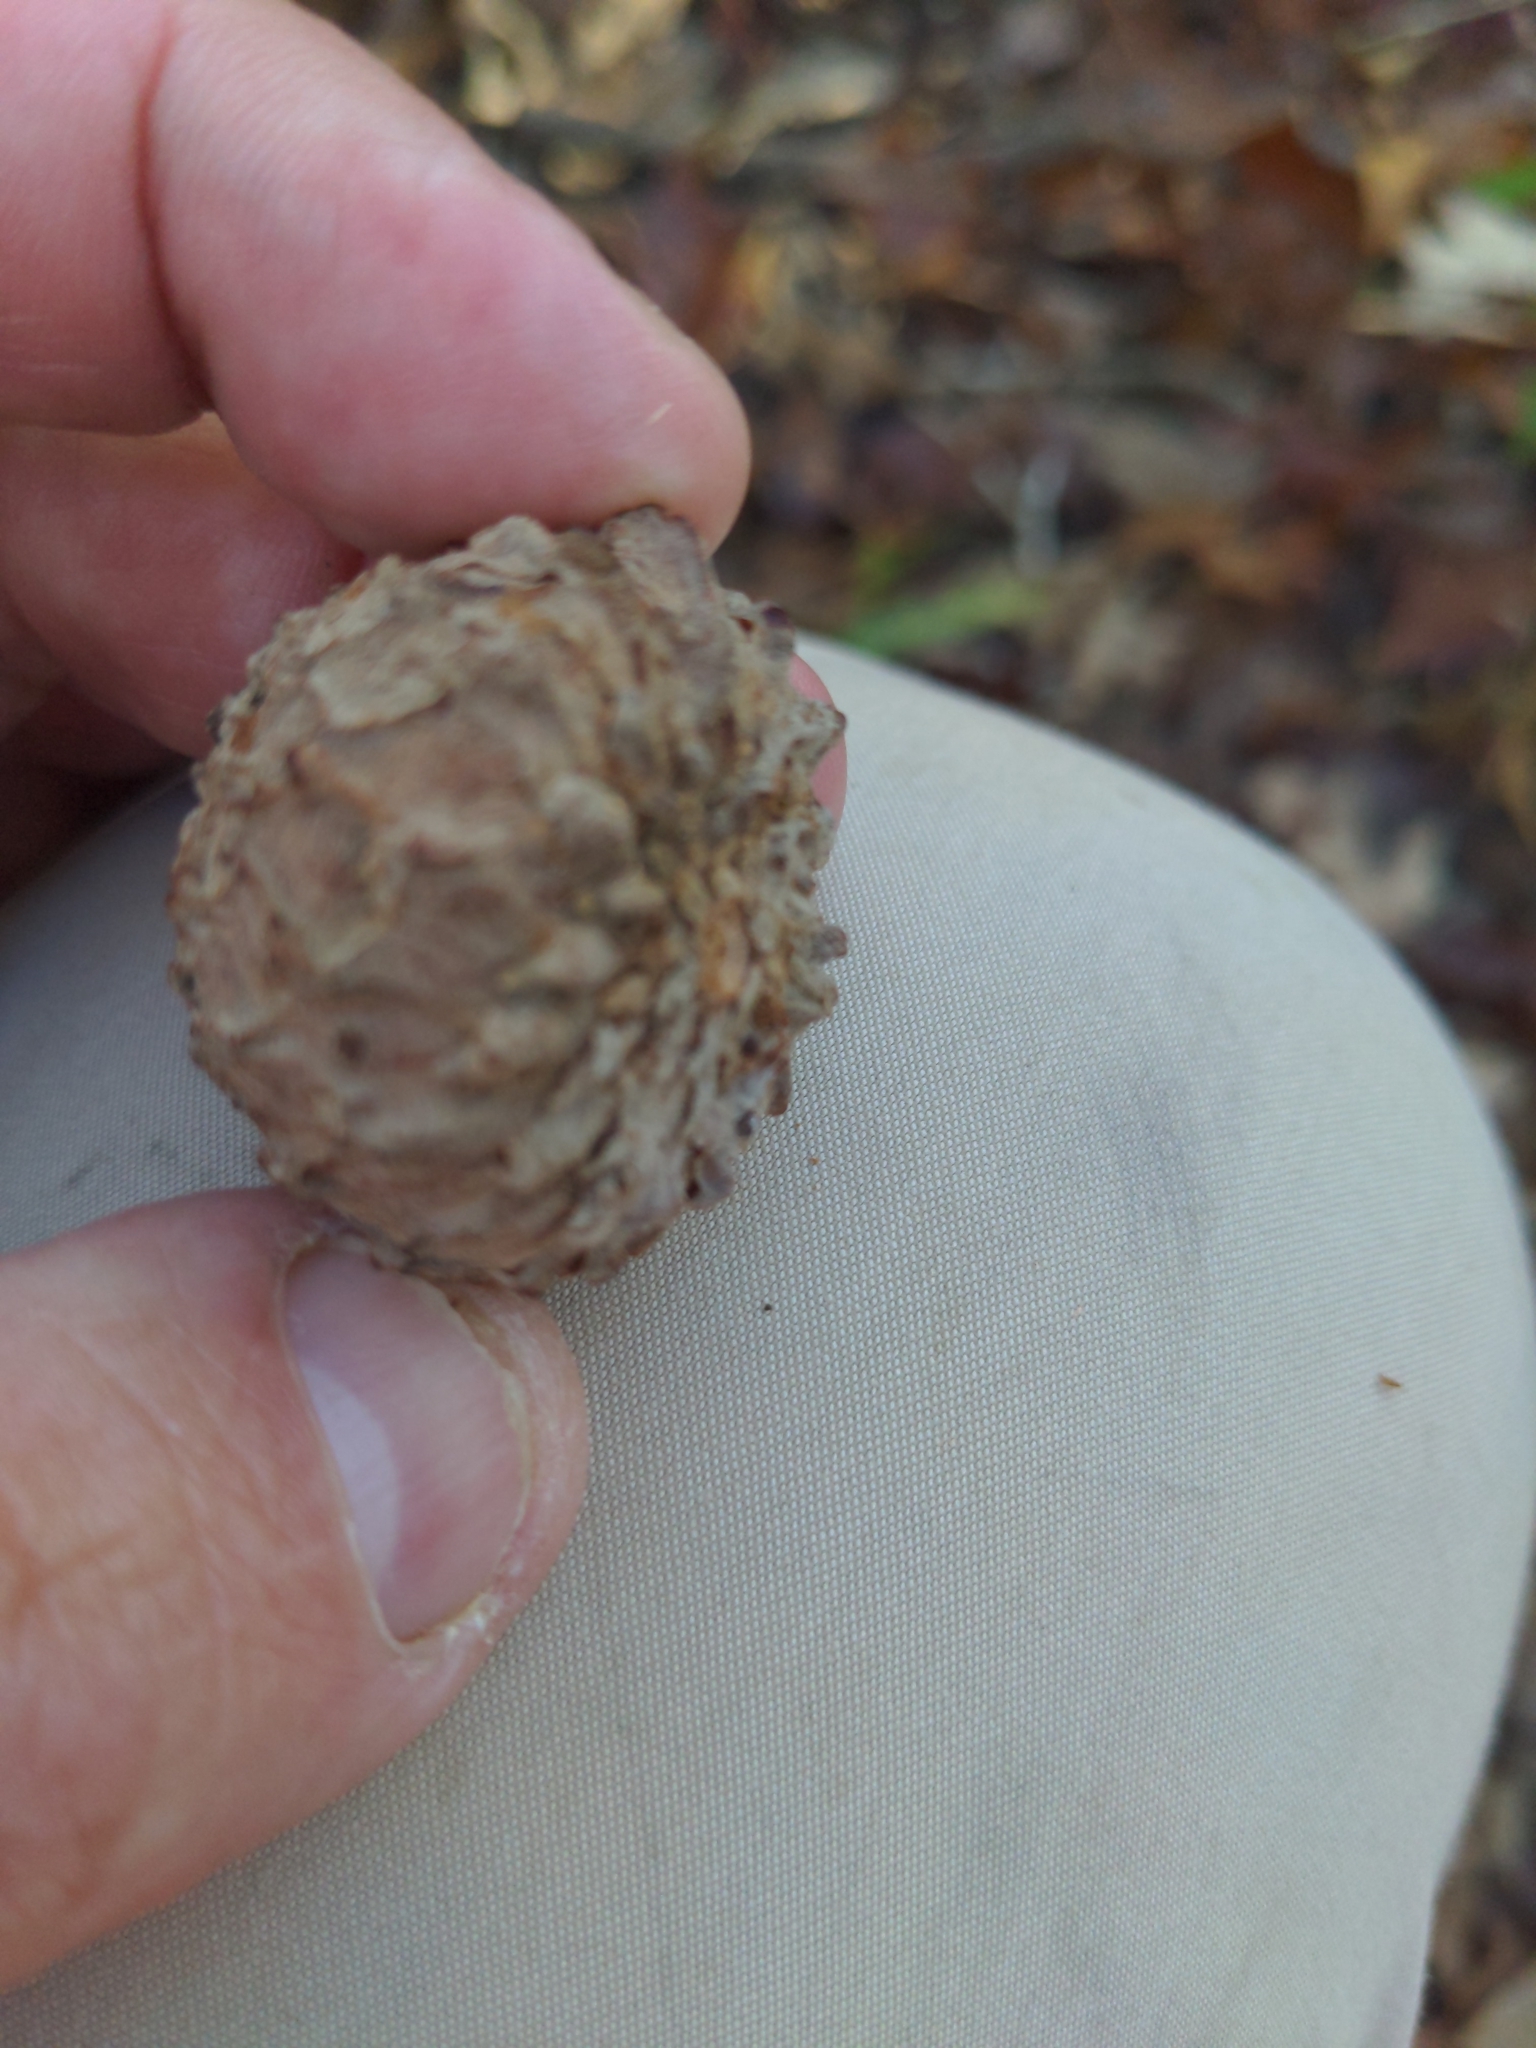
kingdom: Plantae
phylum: Tracheophyta
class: Magnoliopsida
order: Fagales
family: Fagaceae
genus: Quercus
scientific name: Quercus lyrata
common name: Overcup oak
